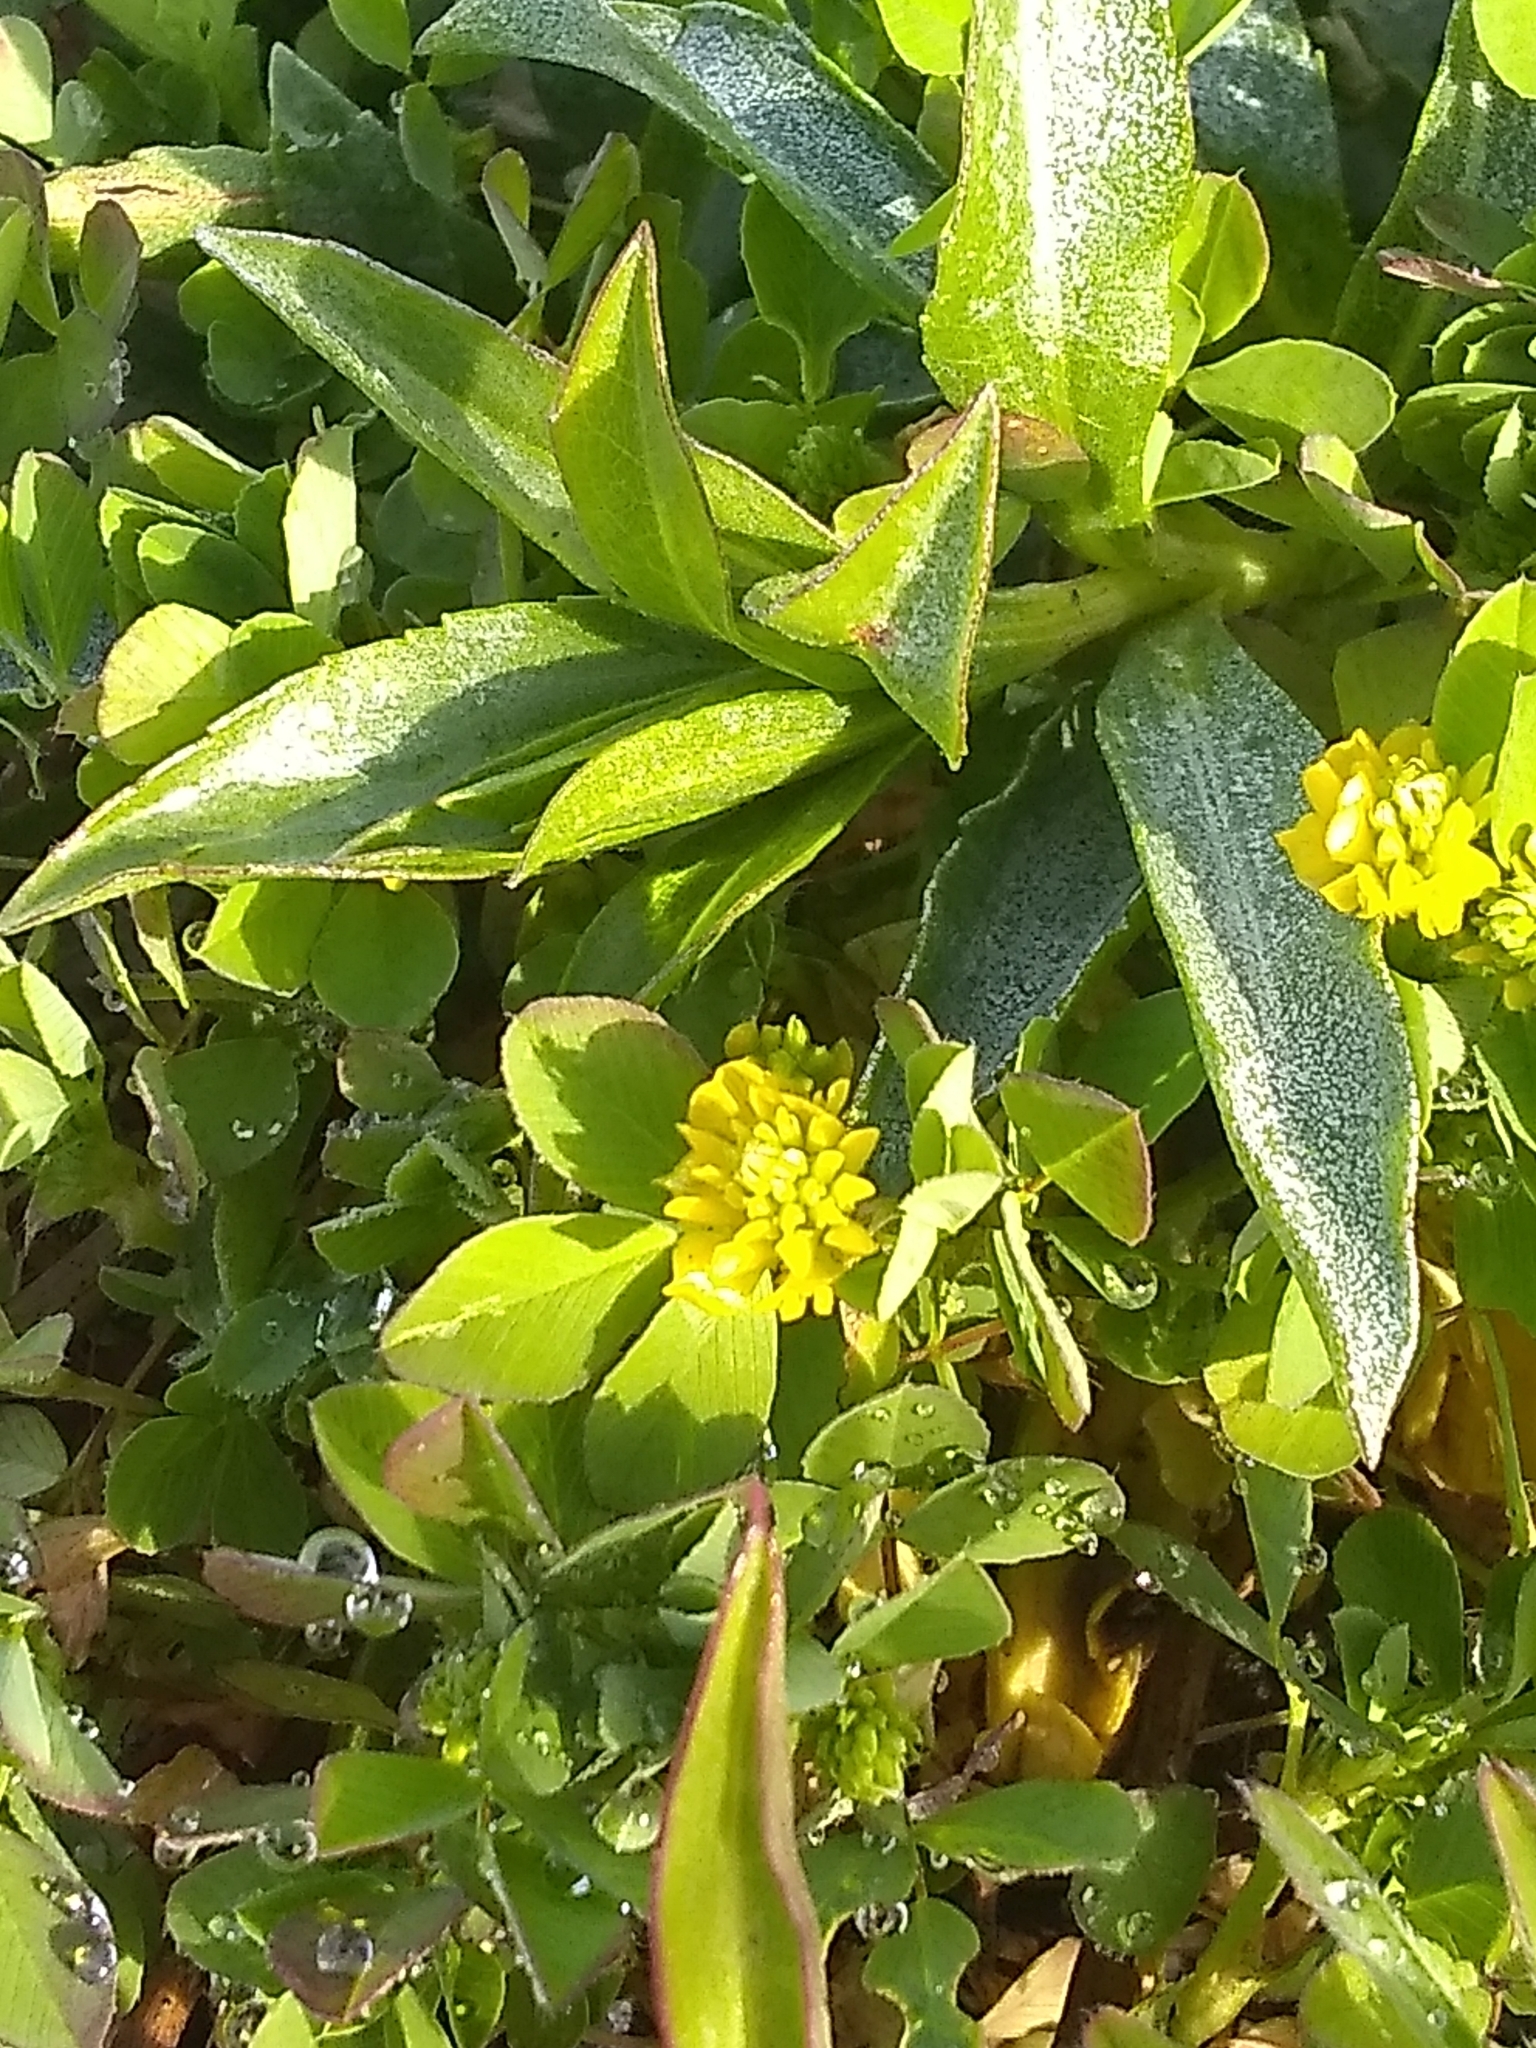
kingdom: Plantae
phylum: Tracheophyta
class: Magnoliopsida
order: Fabales
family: Fabaceae
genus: Trifolium
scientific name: Trifolium campestre
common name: Field clover
